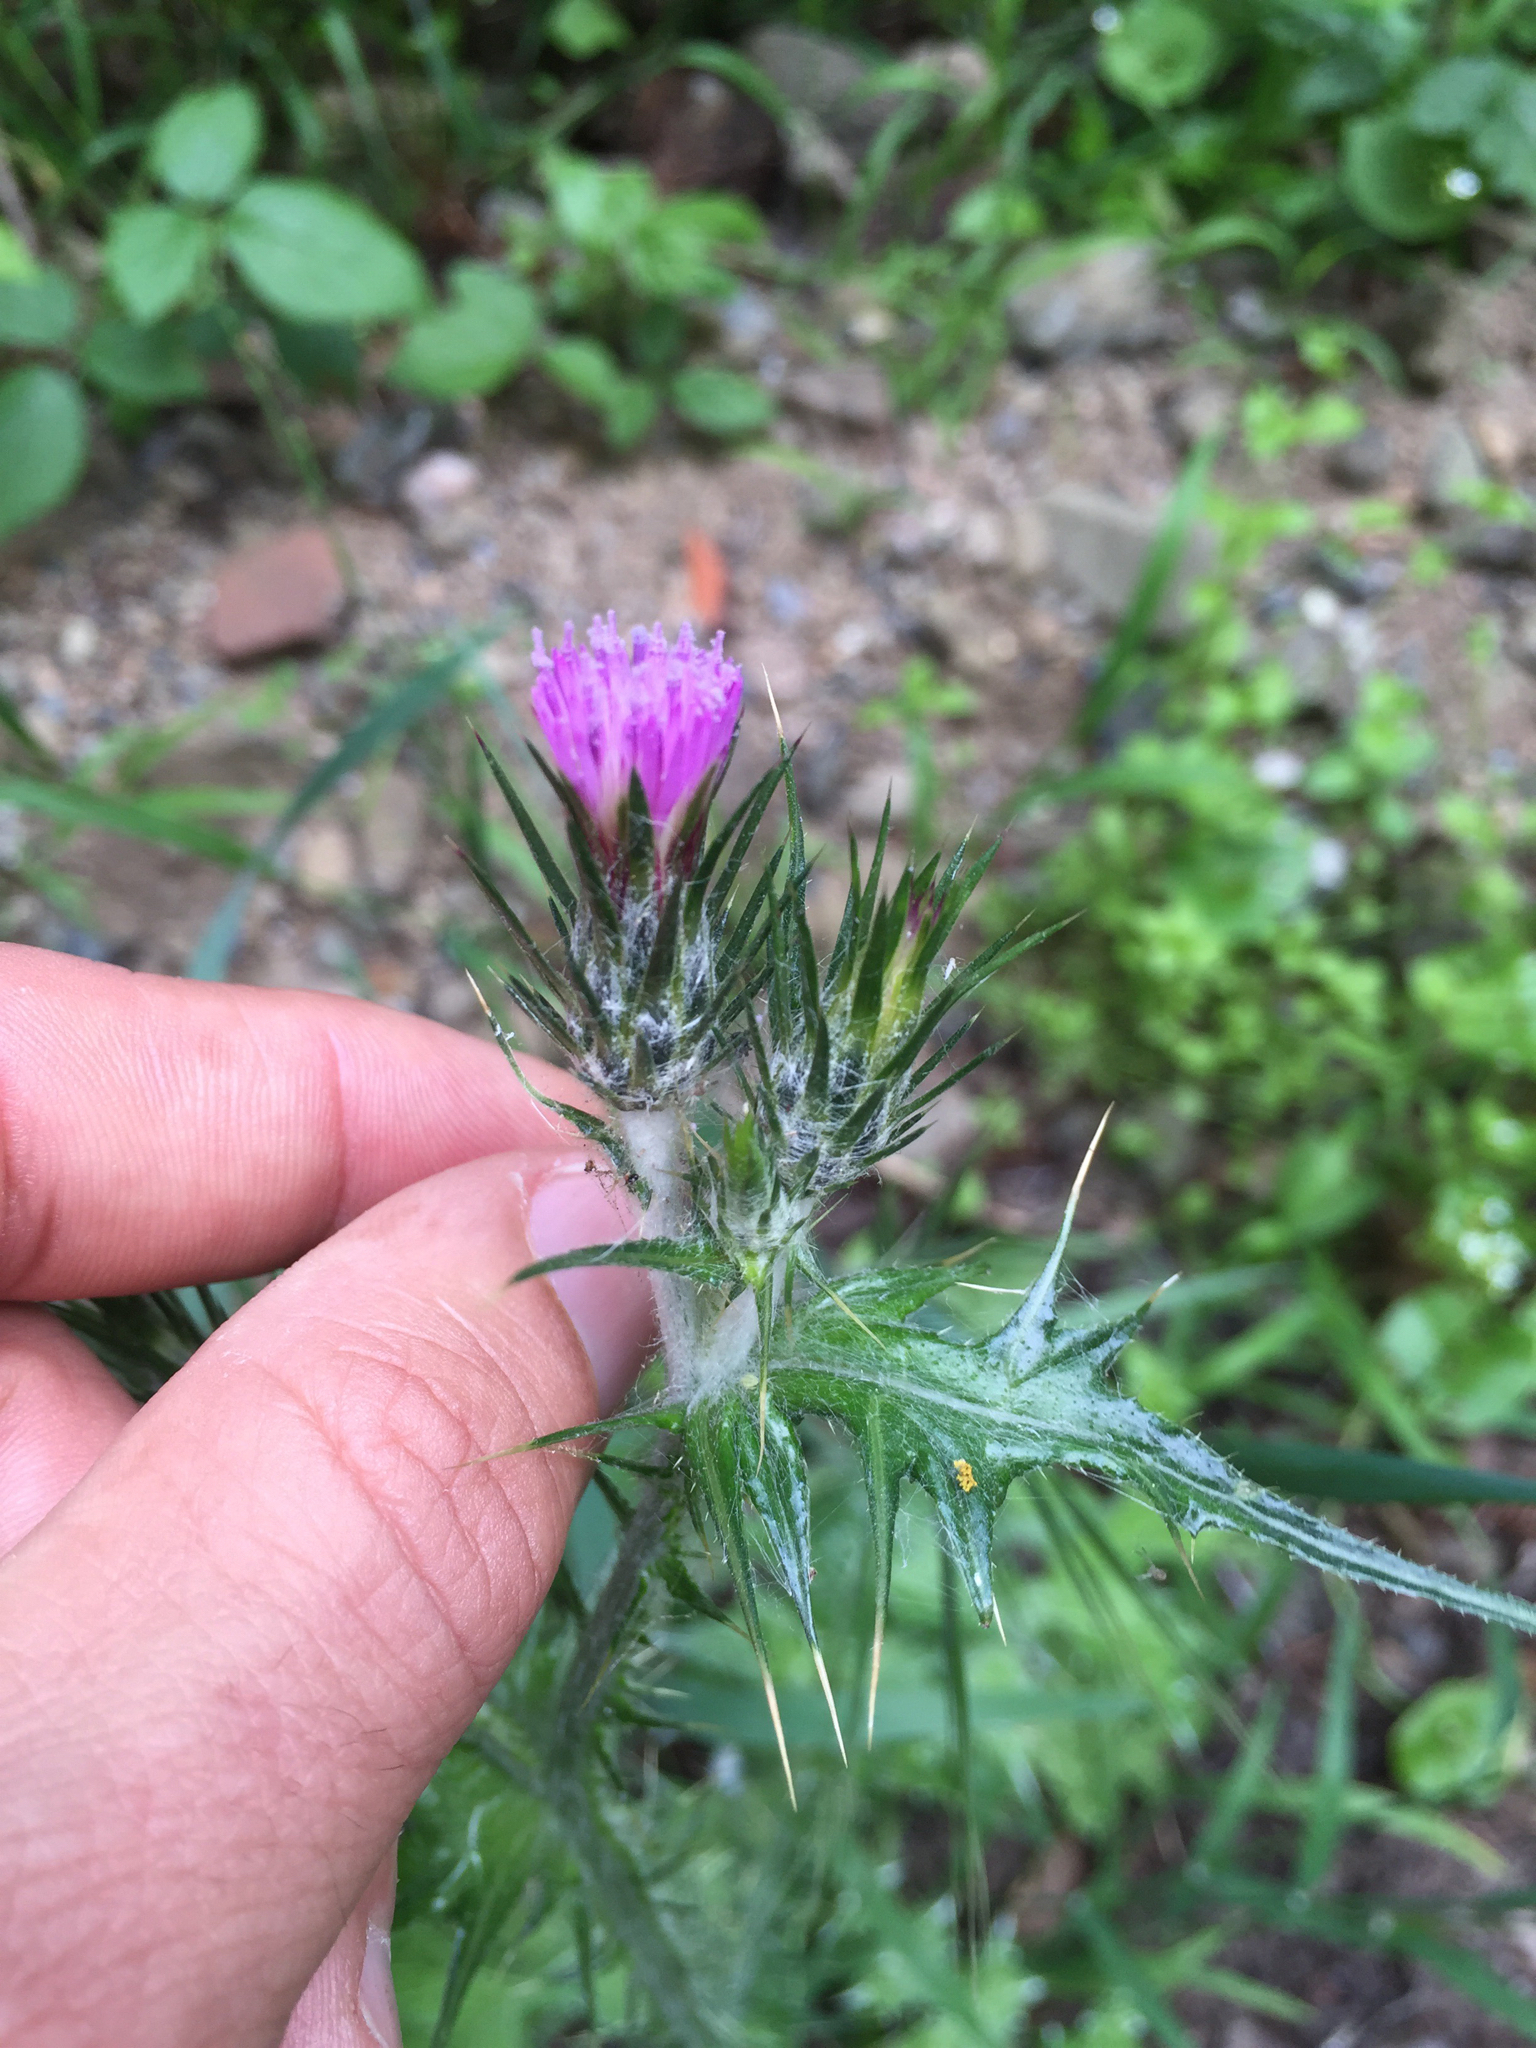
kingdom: Plantae
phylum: Tracheophyta
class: Magnoliopsida
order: Asterales
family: Asteraceae
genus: Carduus
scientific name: Carduus pycnocephalus
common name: Plymouth thistle
